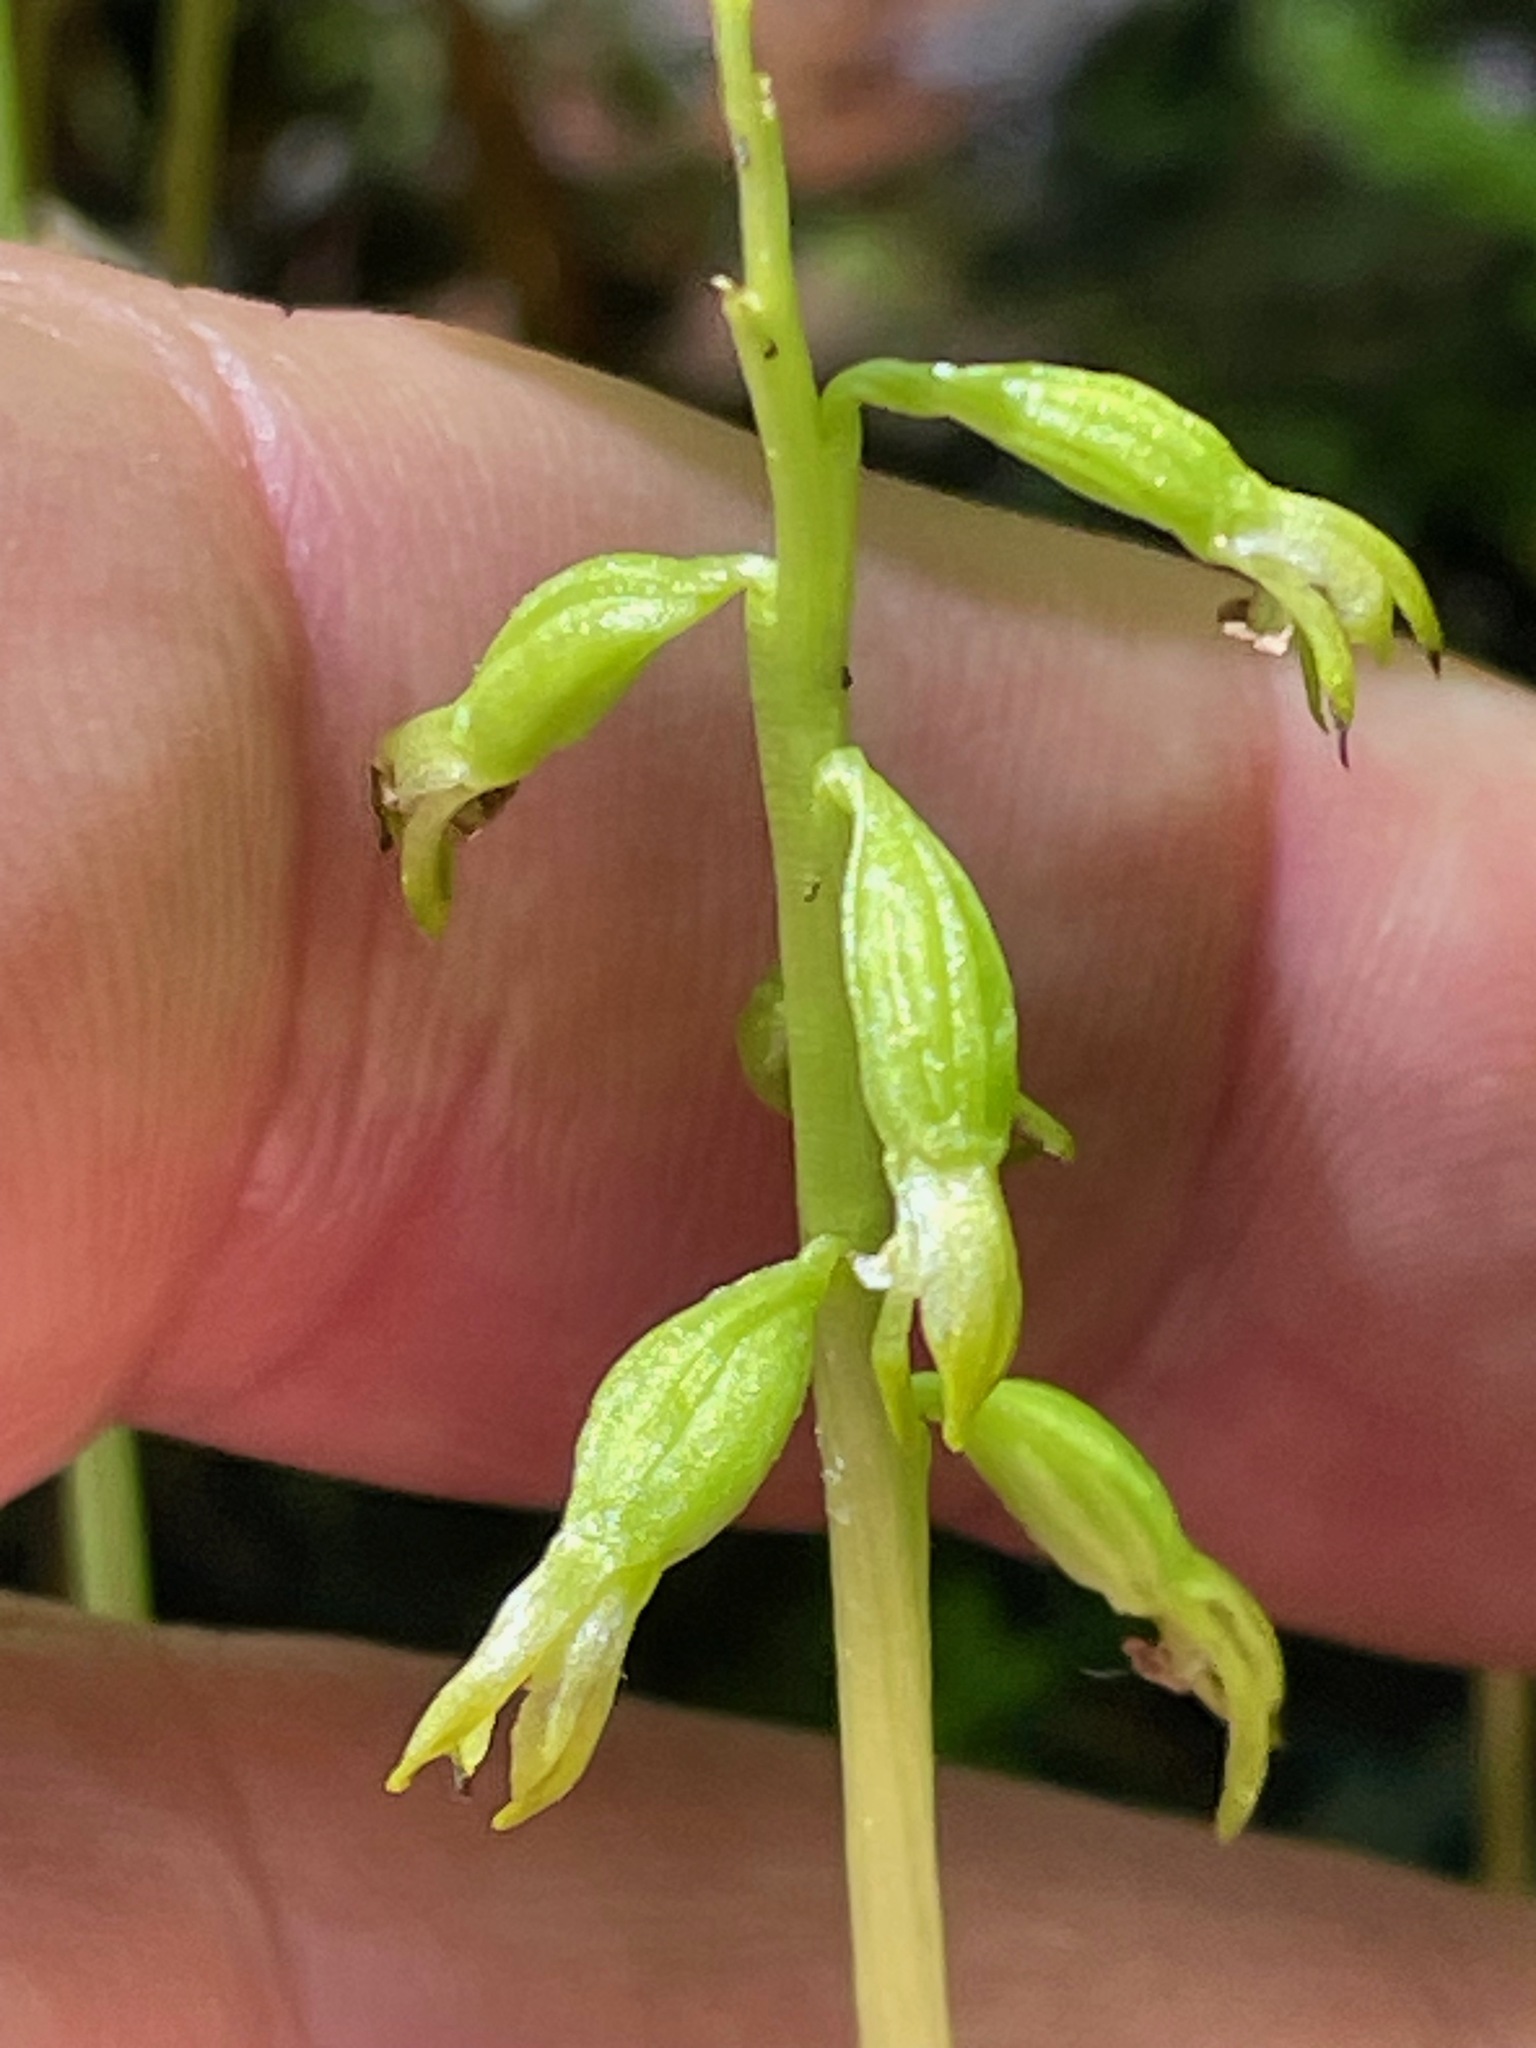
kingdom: Plantae
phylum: Tracheophyta
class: Liliopsida
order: Asparagales
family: Orchidaceae
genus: Corallorhiza
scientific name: Corallorhiza trifida
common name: Yellow coralroot
